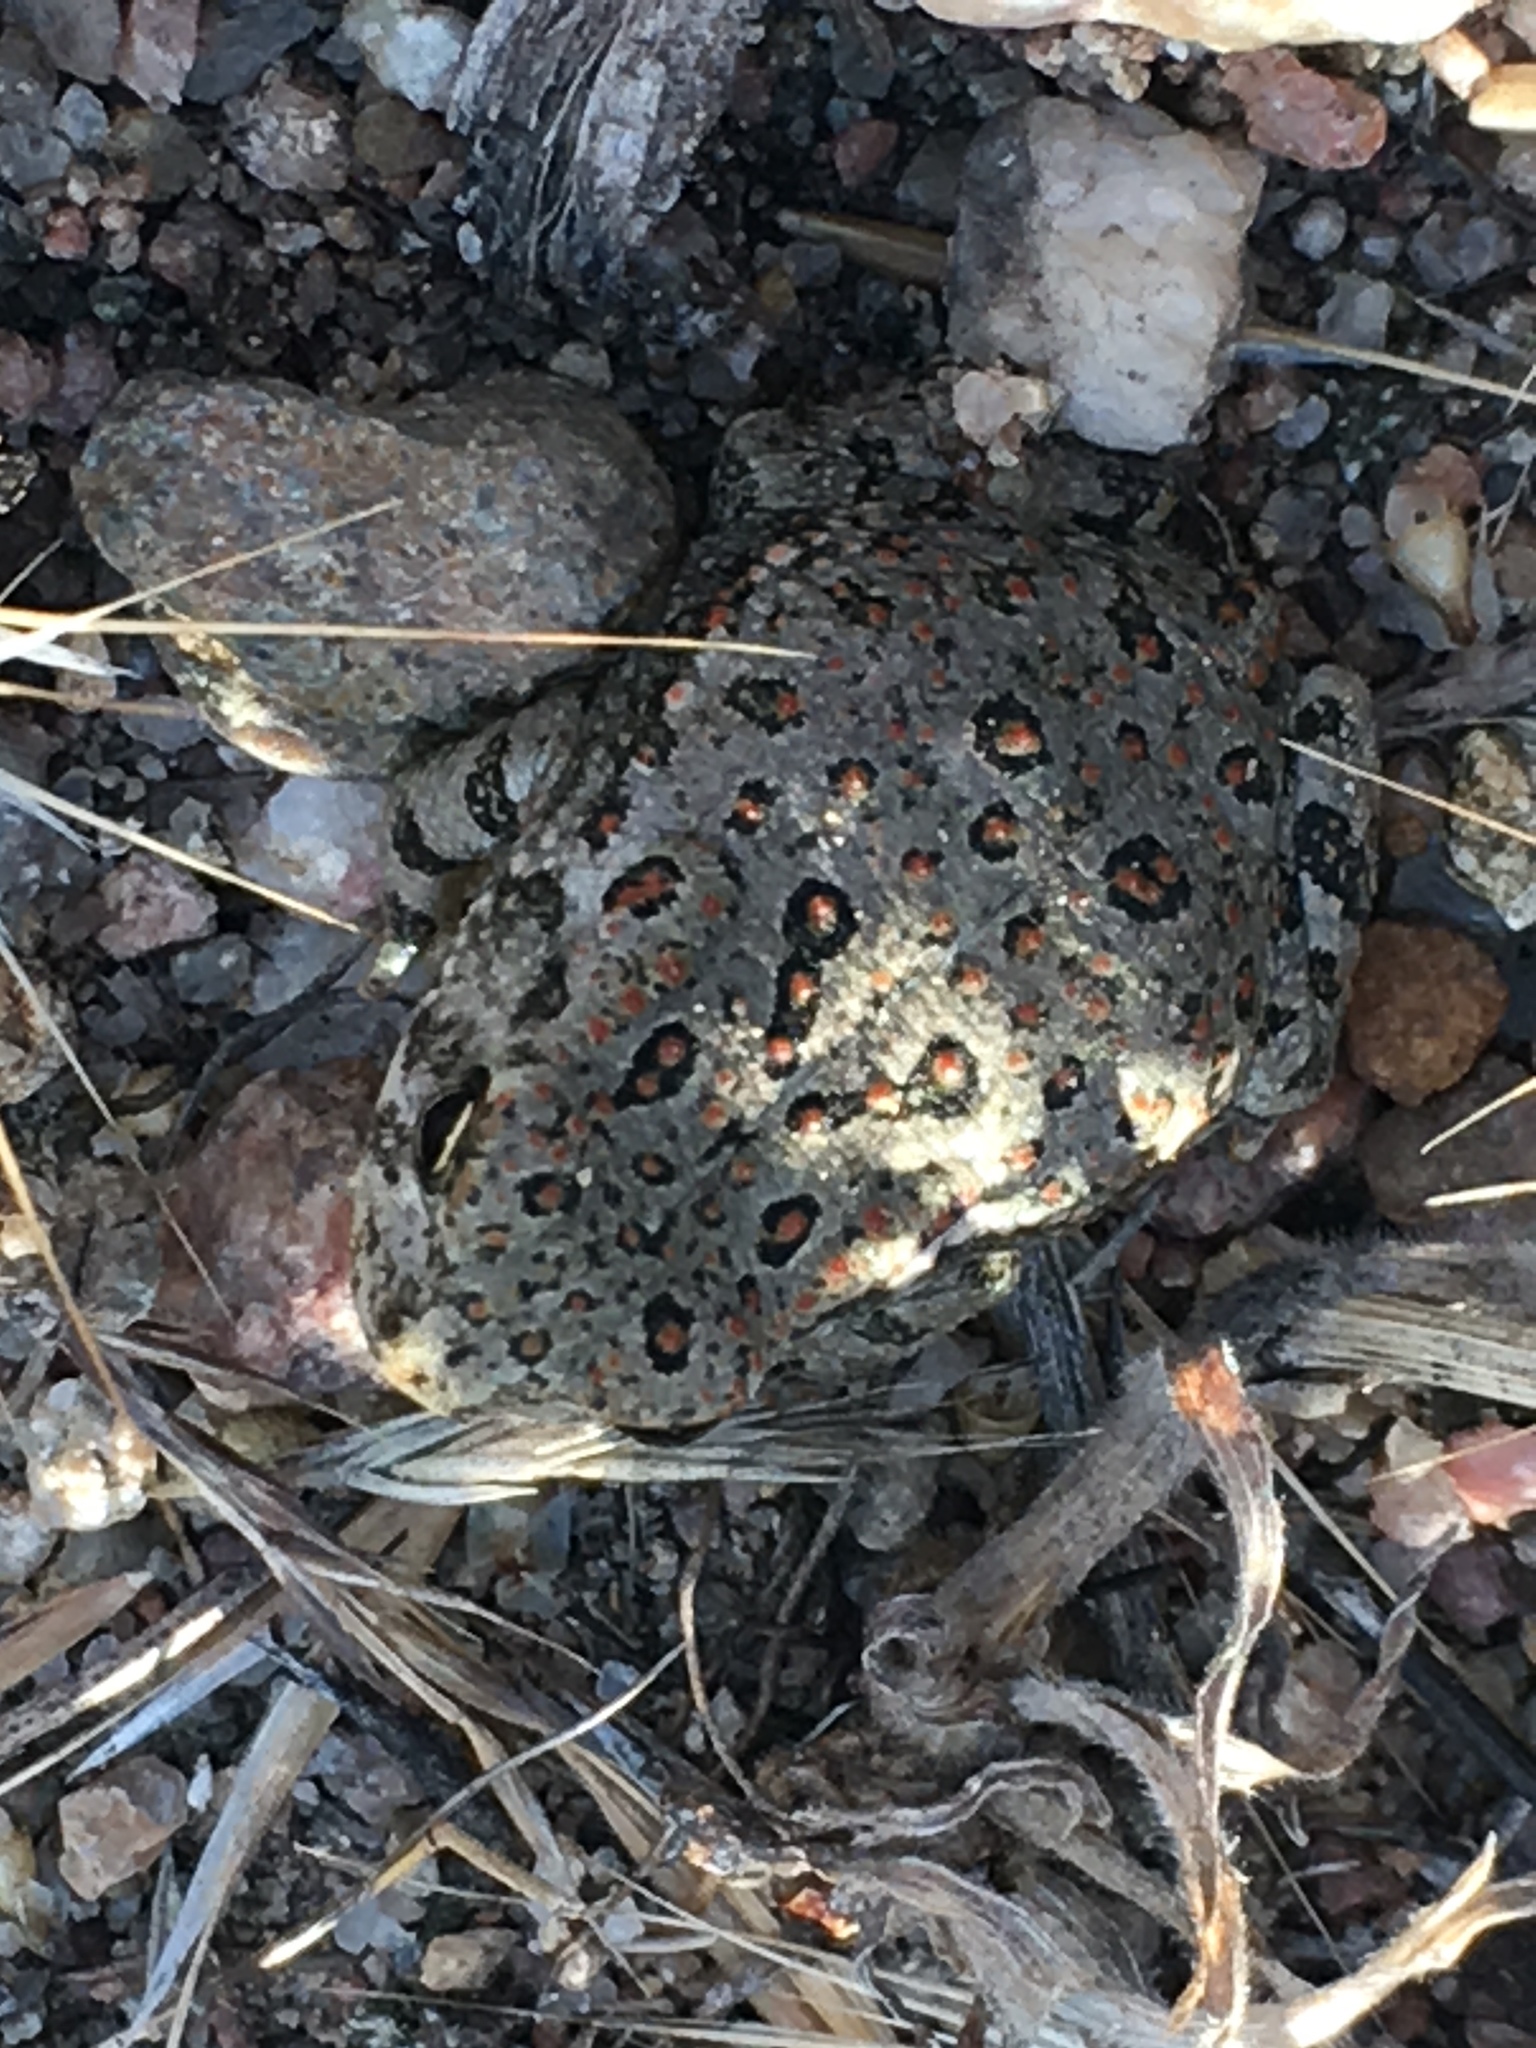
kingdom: Animalia
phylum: Chordata
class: Amphibia
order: Anura
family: Bufonidae
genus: Anaxyrus
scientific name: Anaxyrus woodhousii
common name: Woodhouse's toad
